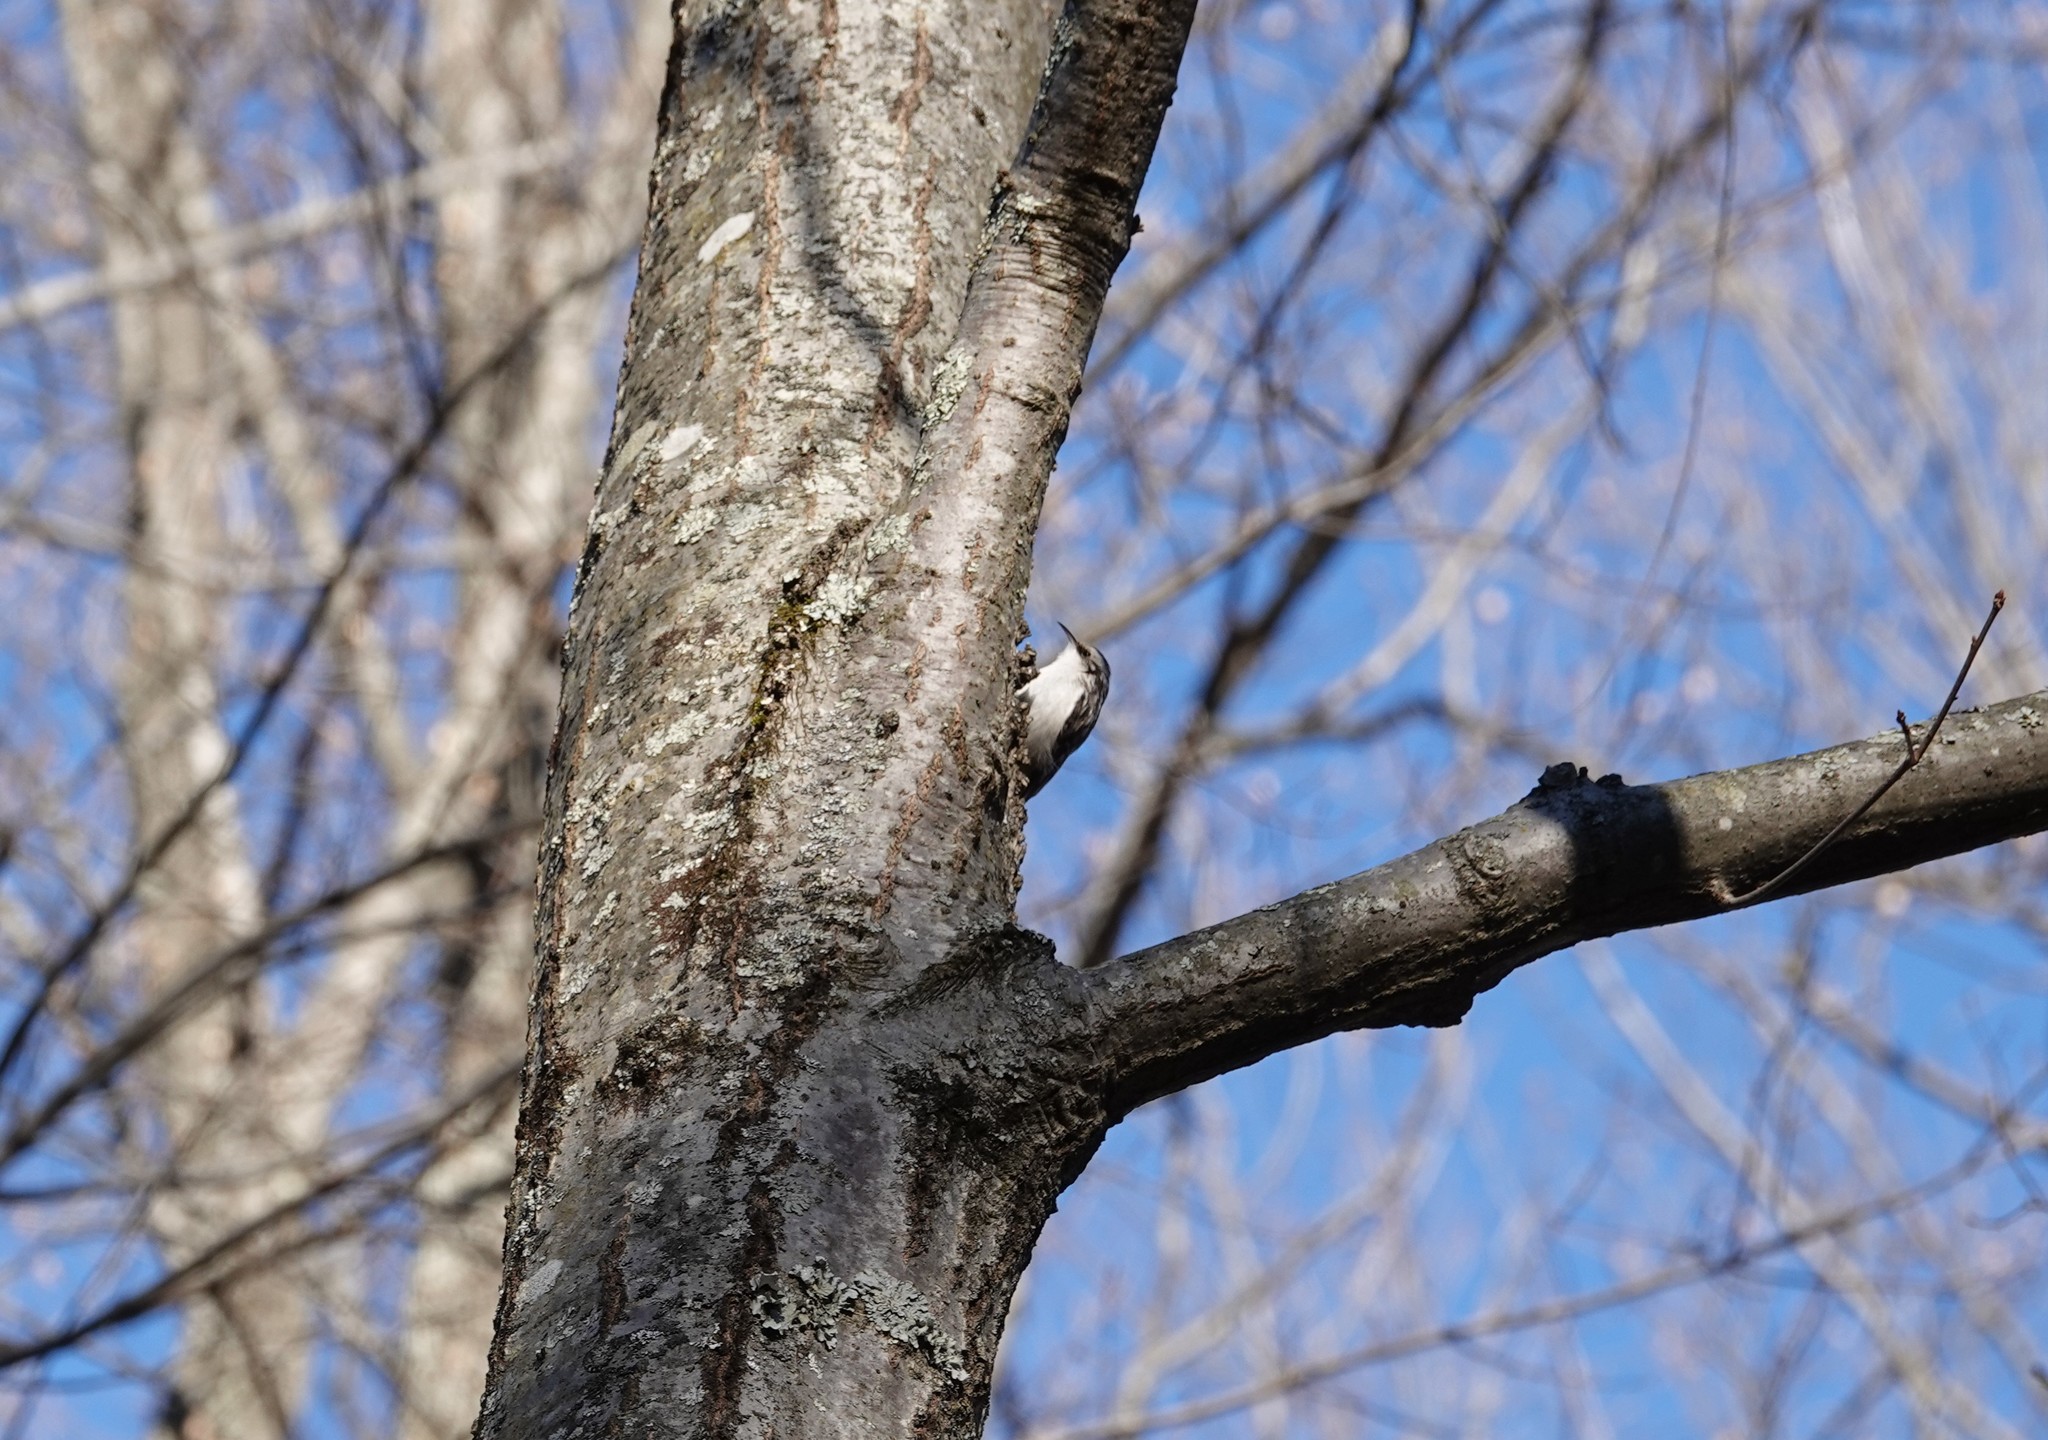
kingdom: Animalia
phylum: Chordata
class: Aves
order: Passeriformes
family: Certhiidae
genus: Certhia
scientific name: Certhia americana
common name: Brown creeper
